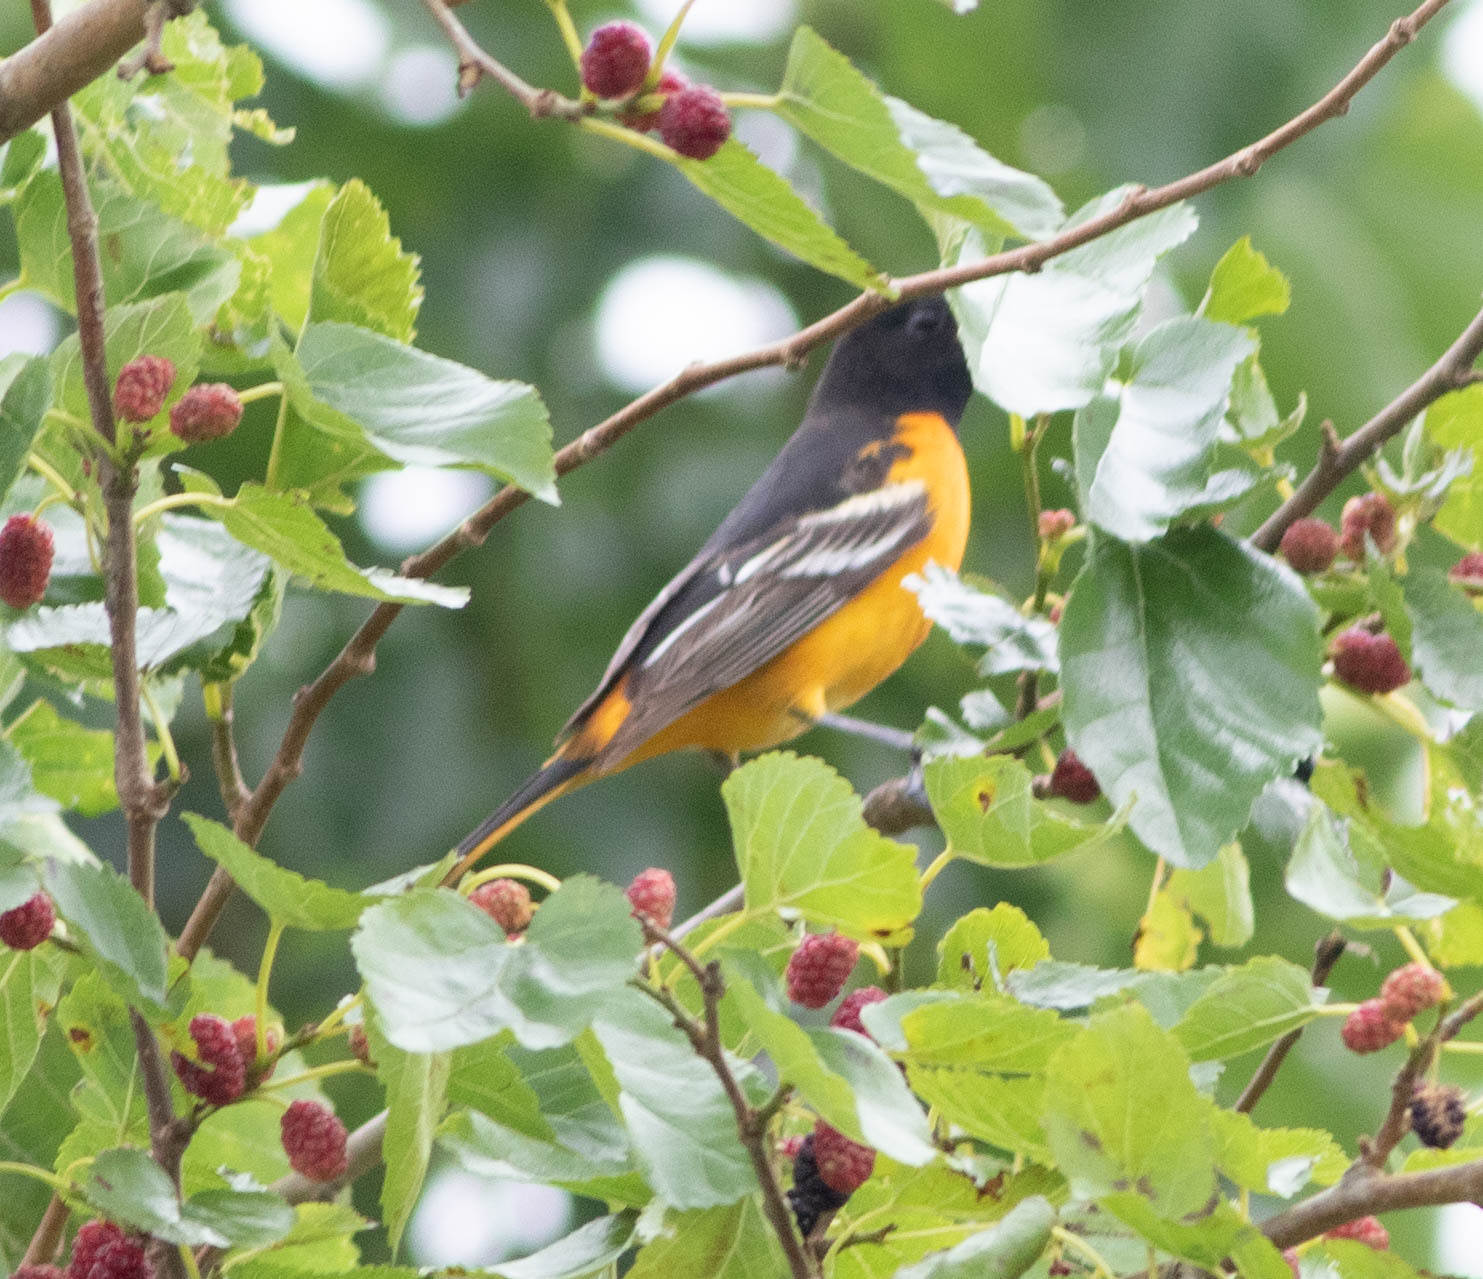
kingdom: Animalia
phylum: Chordata
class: Aves
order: Passeriformes
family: Icteridae
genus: Icterus
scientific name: Icterus galbula
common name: Baltimore oriole
